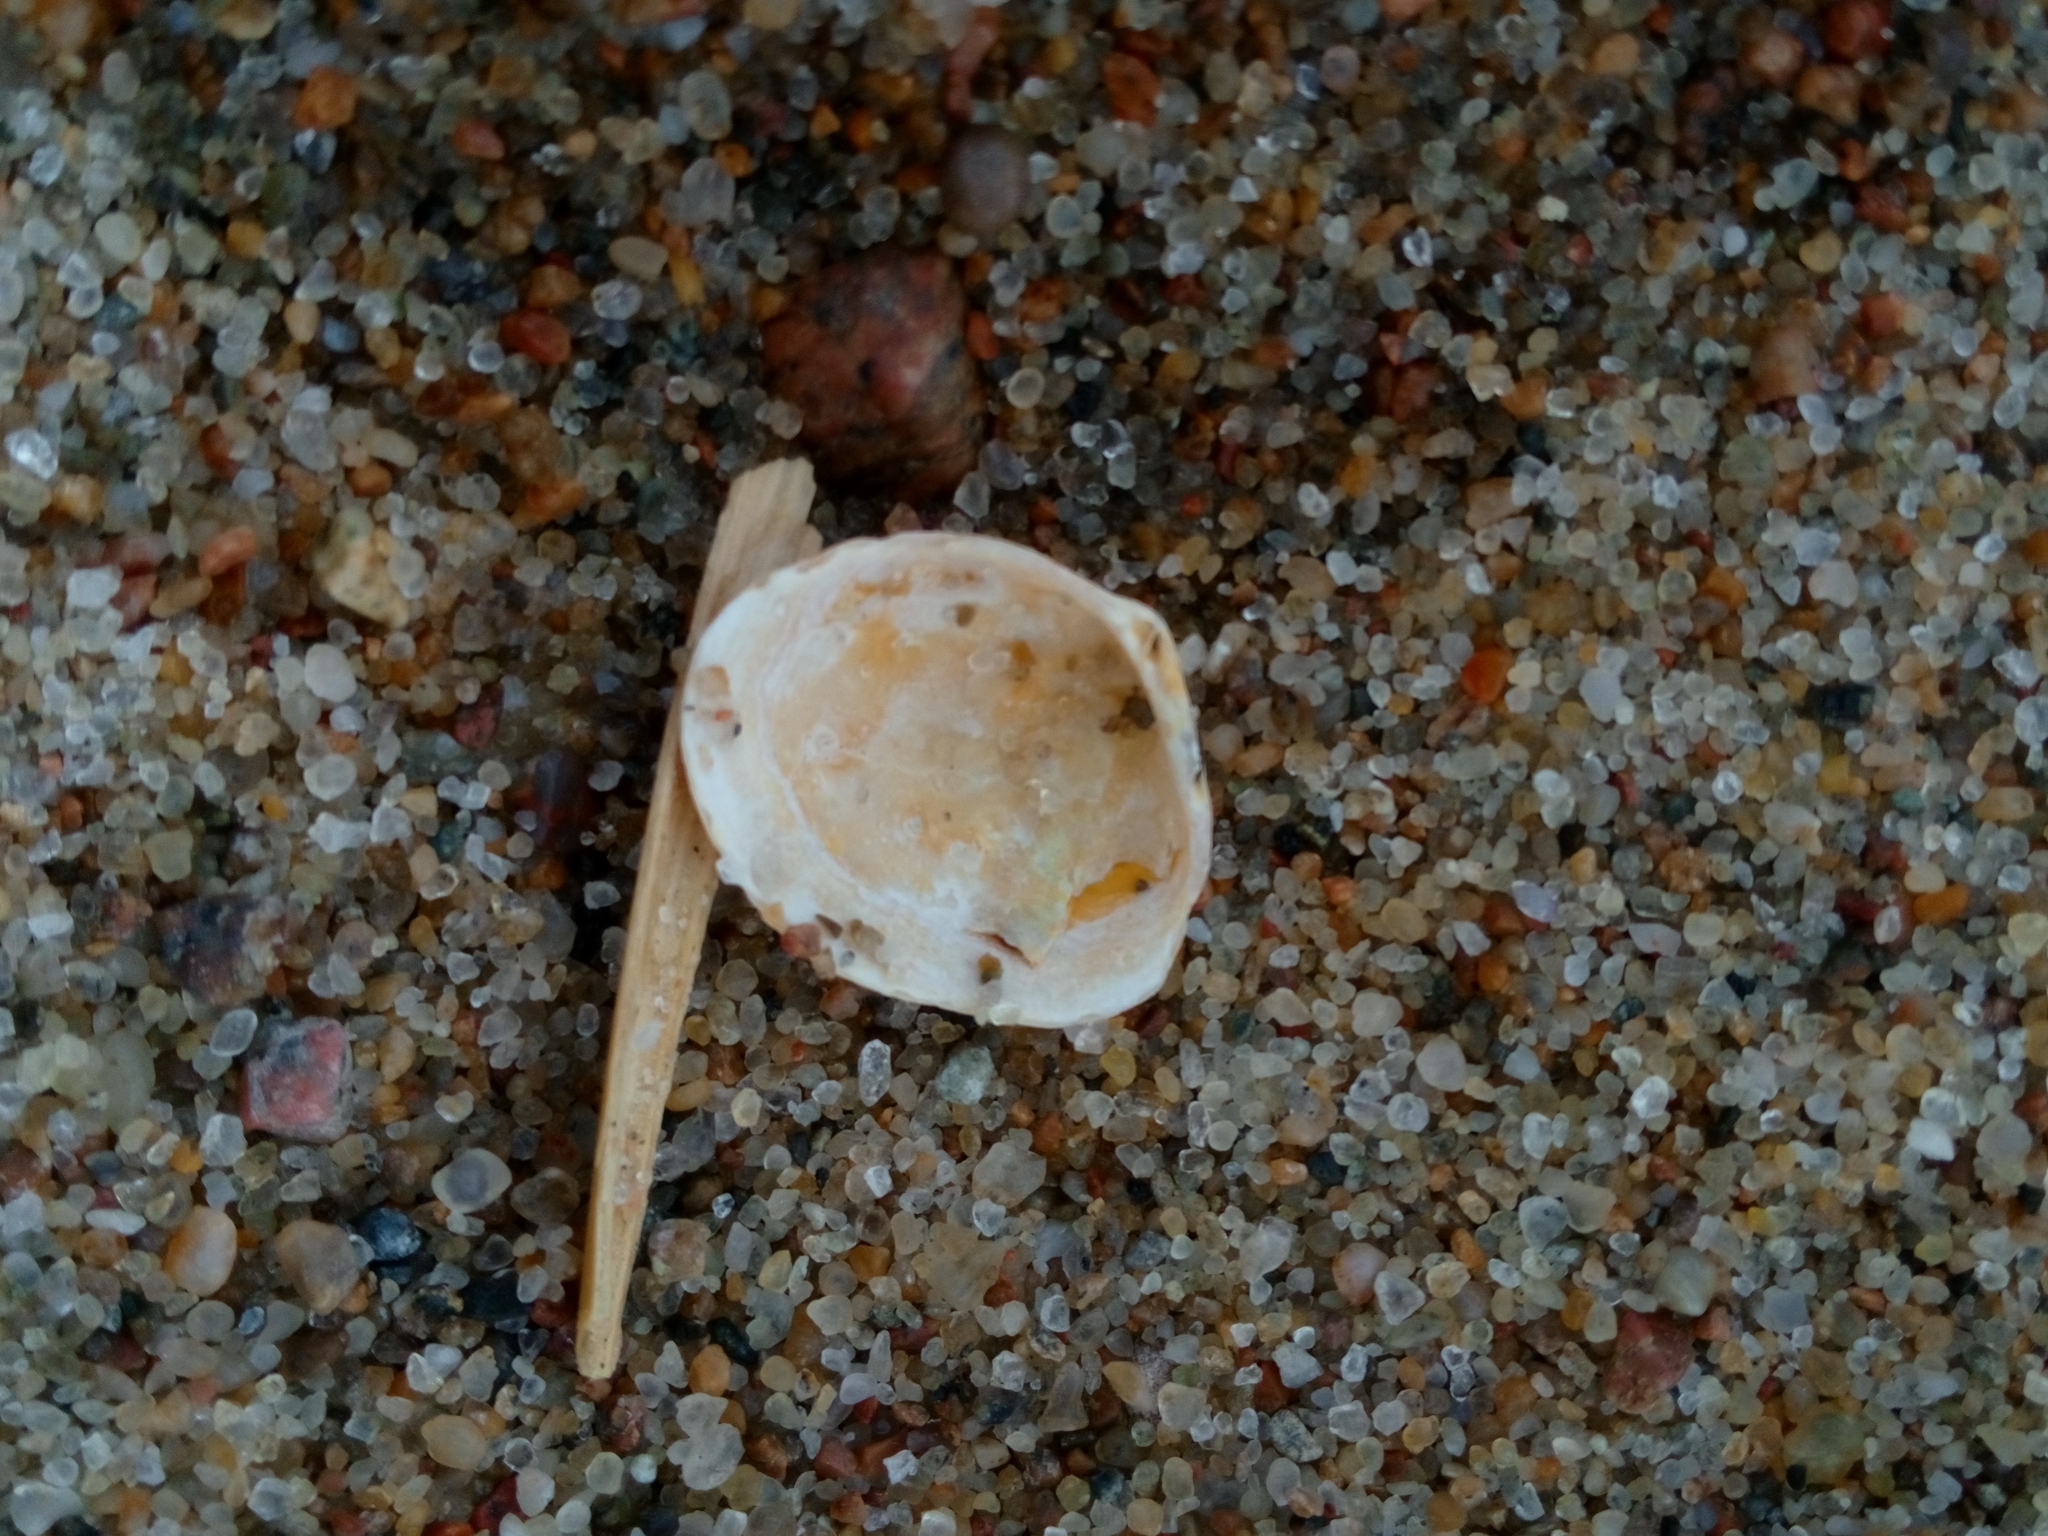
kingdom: Animalia
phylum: Mollusca
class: Bivalvia
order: Cardiida
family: Tellinidae
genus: Macoma
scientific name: Macoma balthica
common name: Baltic tellin
